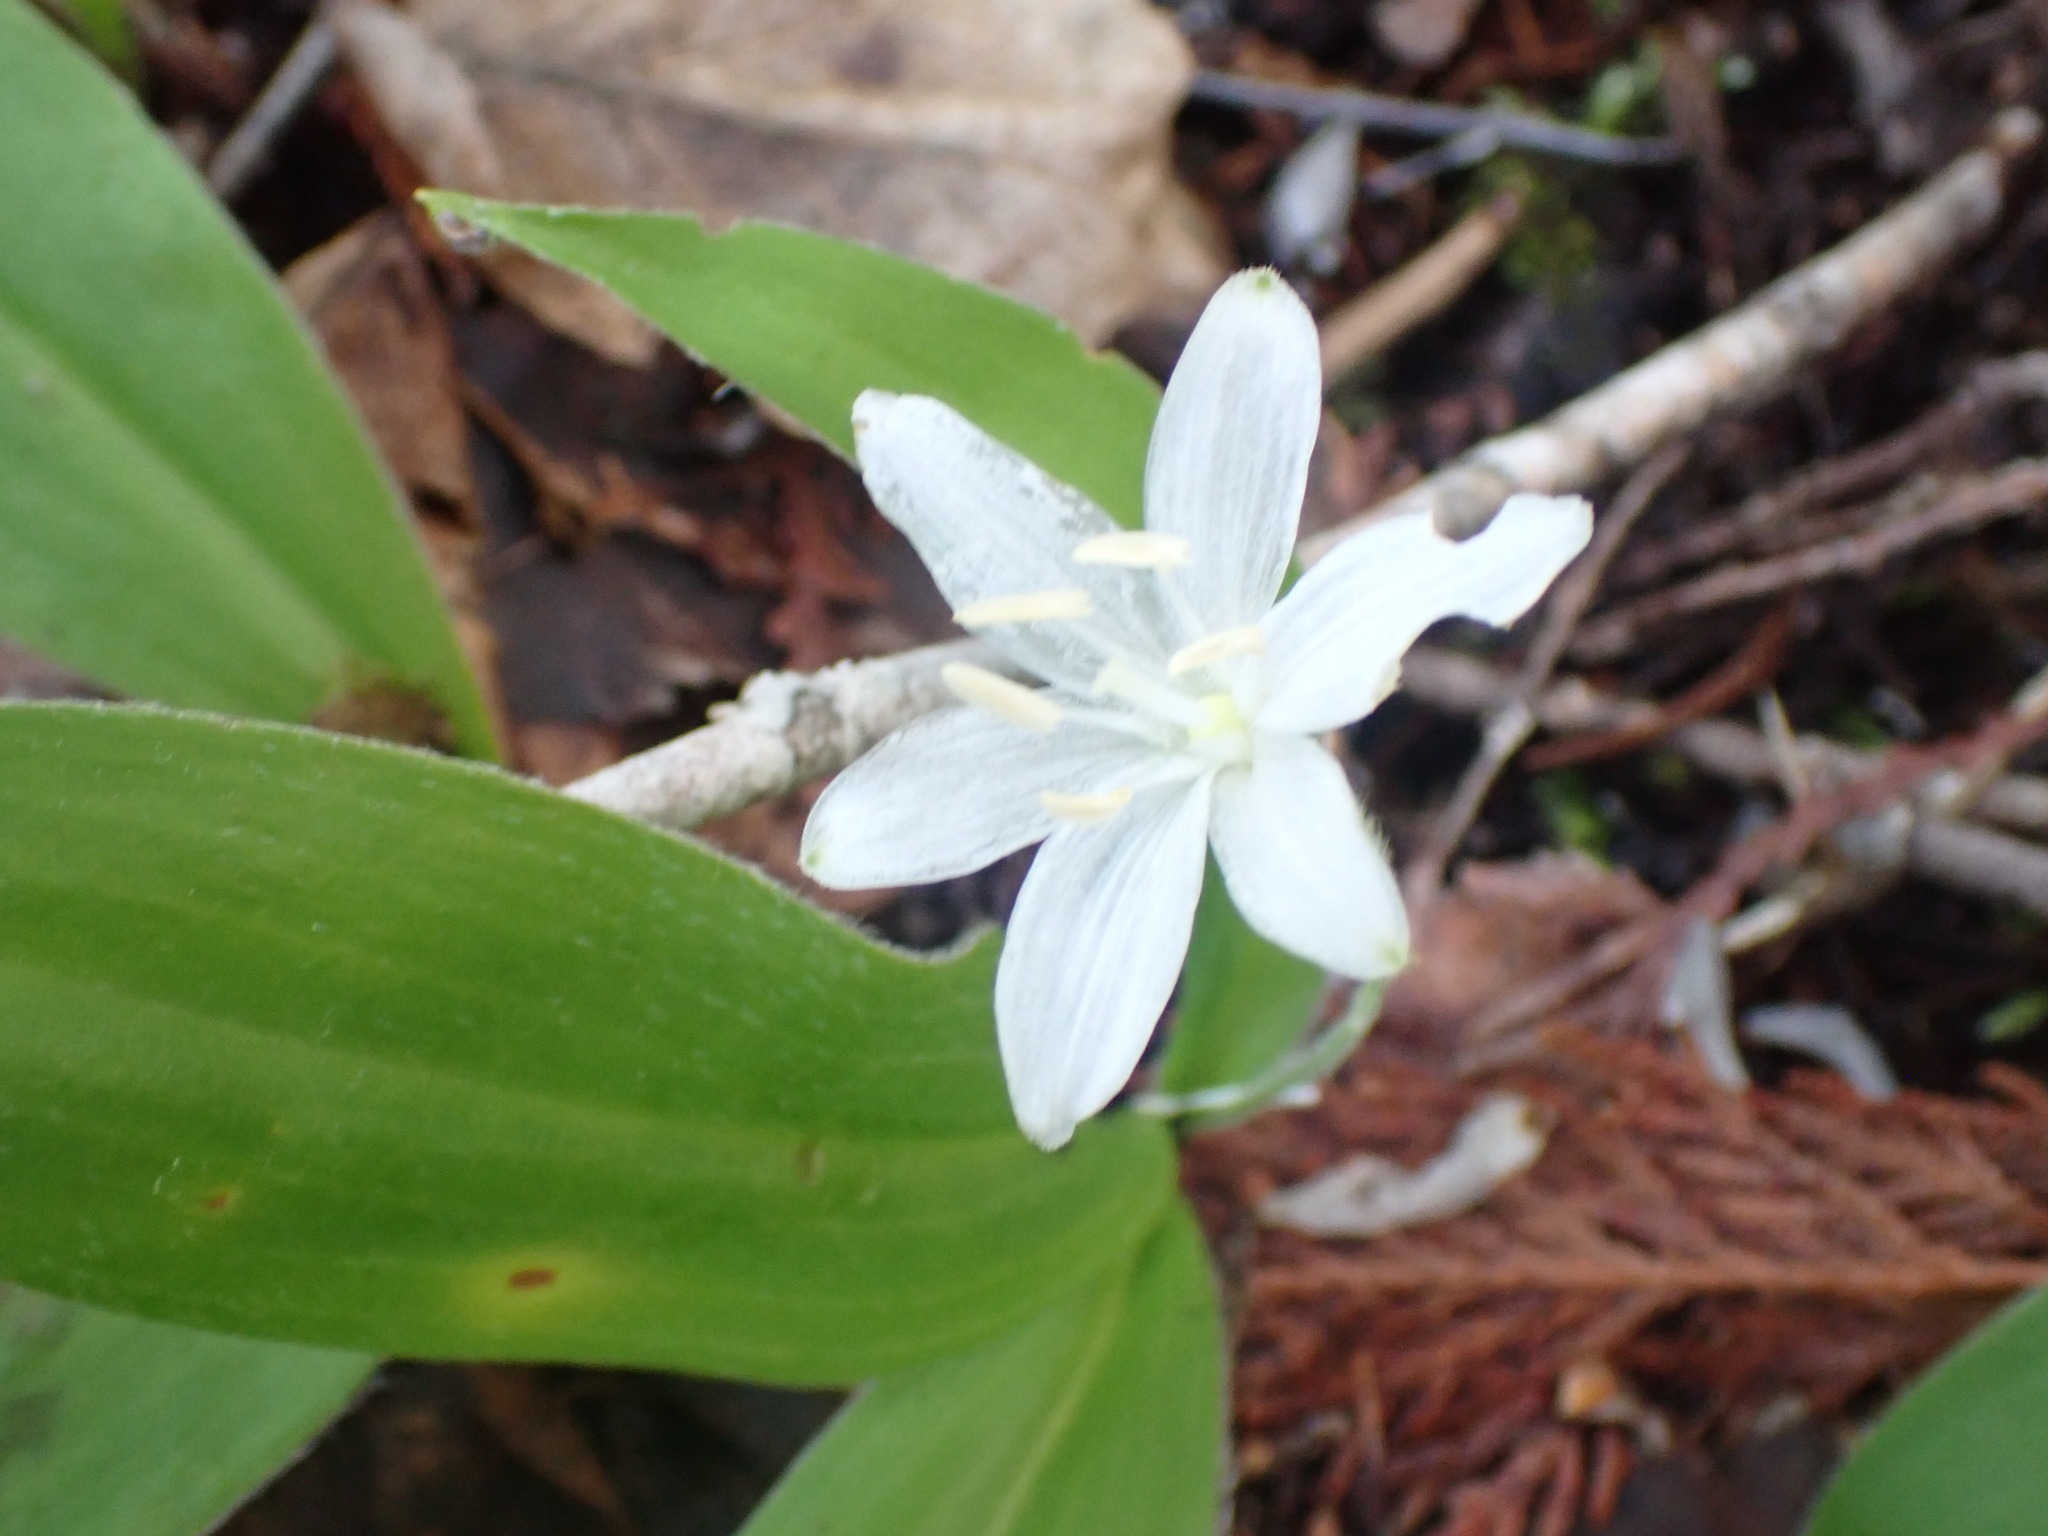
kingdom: Plantae
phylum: Tracheophyta
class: Liliopsida
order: Liliales
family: Liliaceae
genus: Clintonia
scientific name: Clintonia uniflora
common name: Queen's cup
